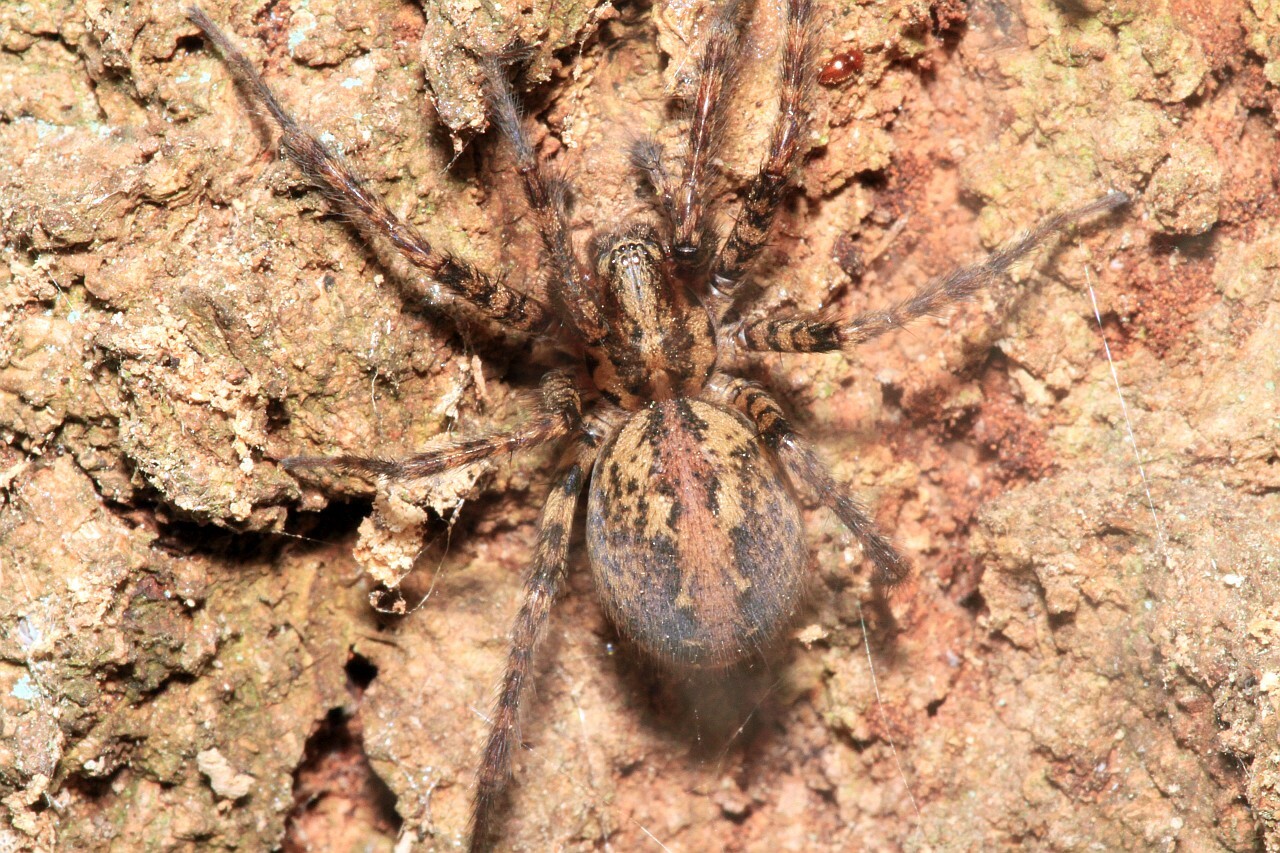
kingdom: Animalia
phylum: Arthropoda
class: Arachnida
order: Araneae
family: Agelenidae
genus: Tegenaria
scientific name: Tegenaria ferruginea
